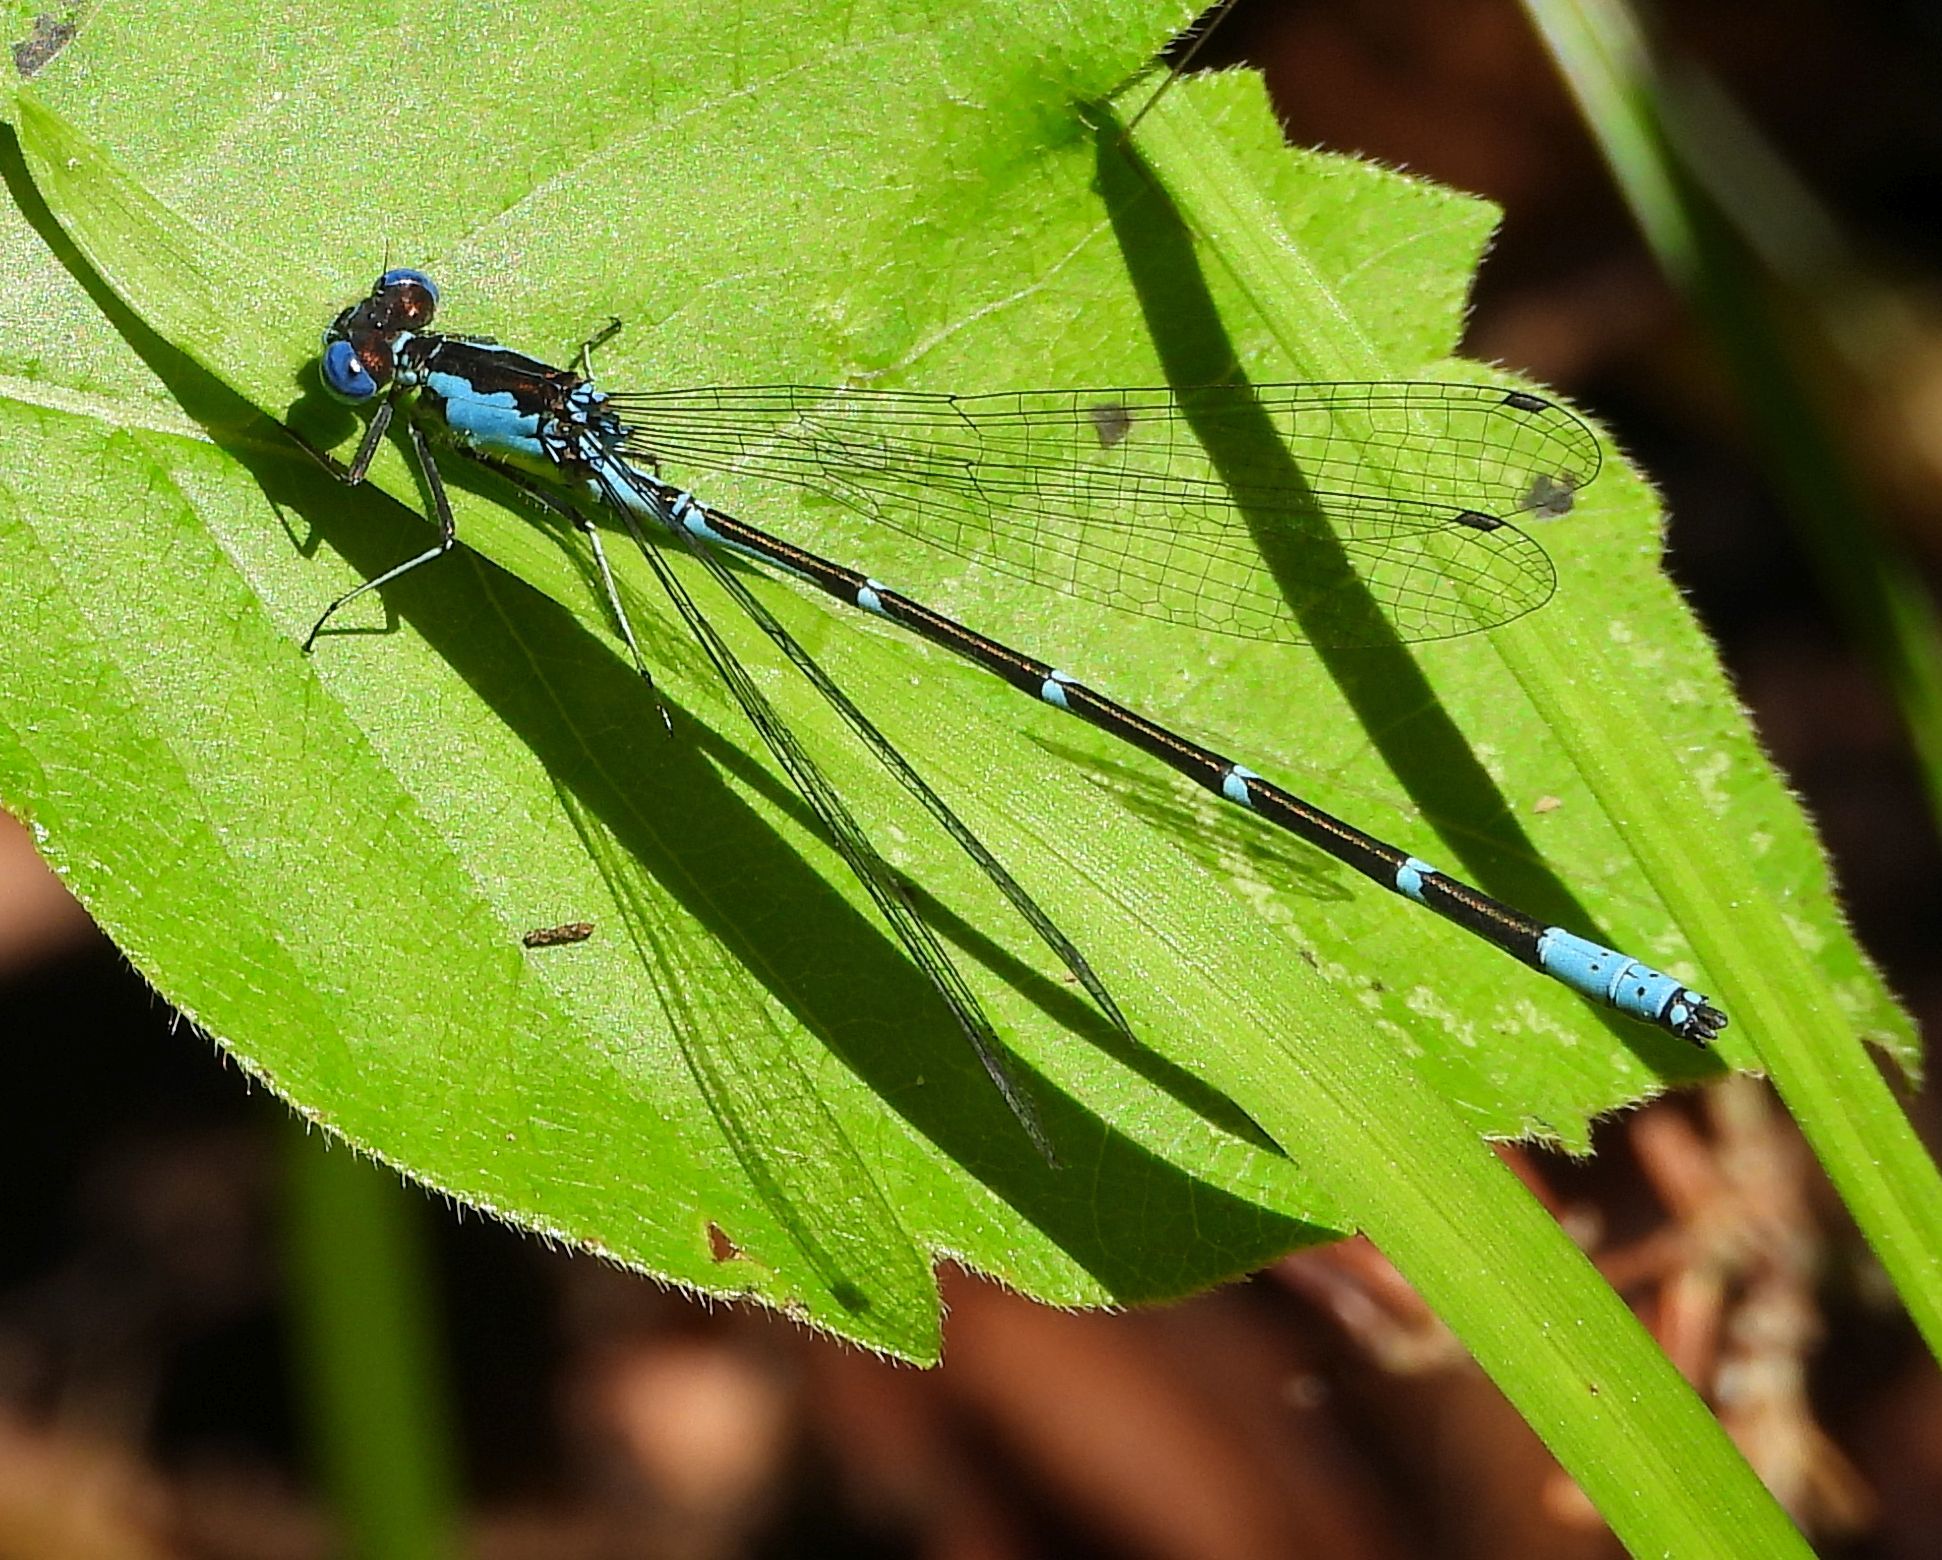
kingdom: Animalia
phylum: Arthropoda
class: Insecta
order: Odonata
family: Coenagrionidae
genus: Chromagrion
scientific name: Chromagrion conditum
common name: Aurora damsel
